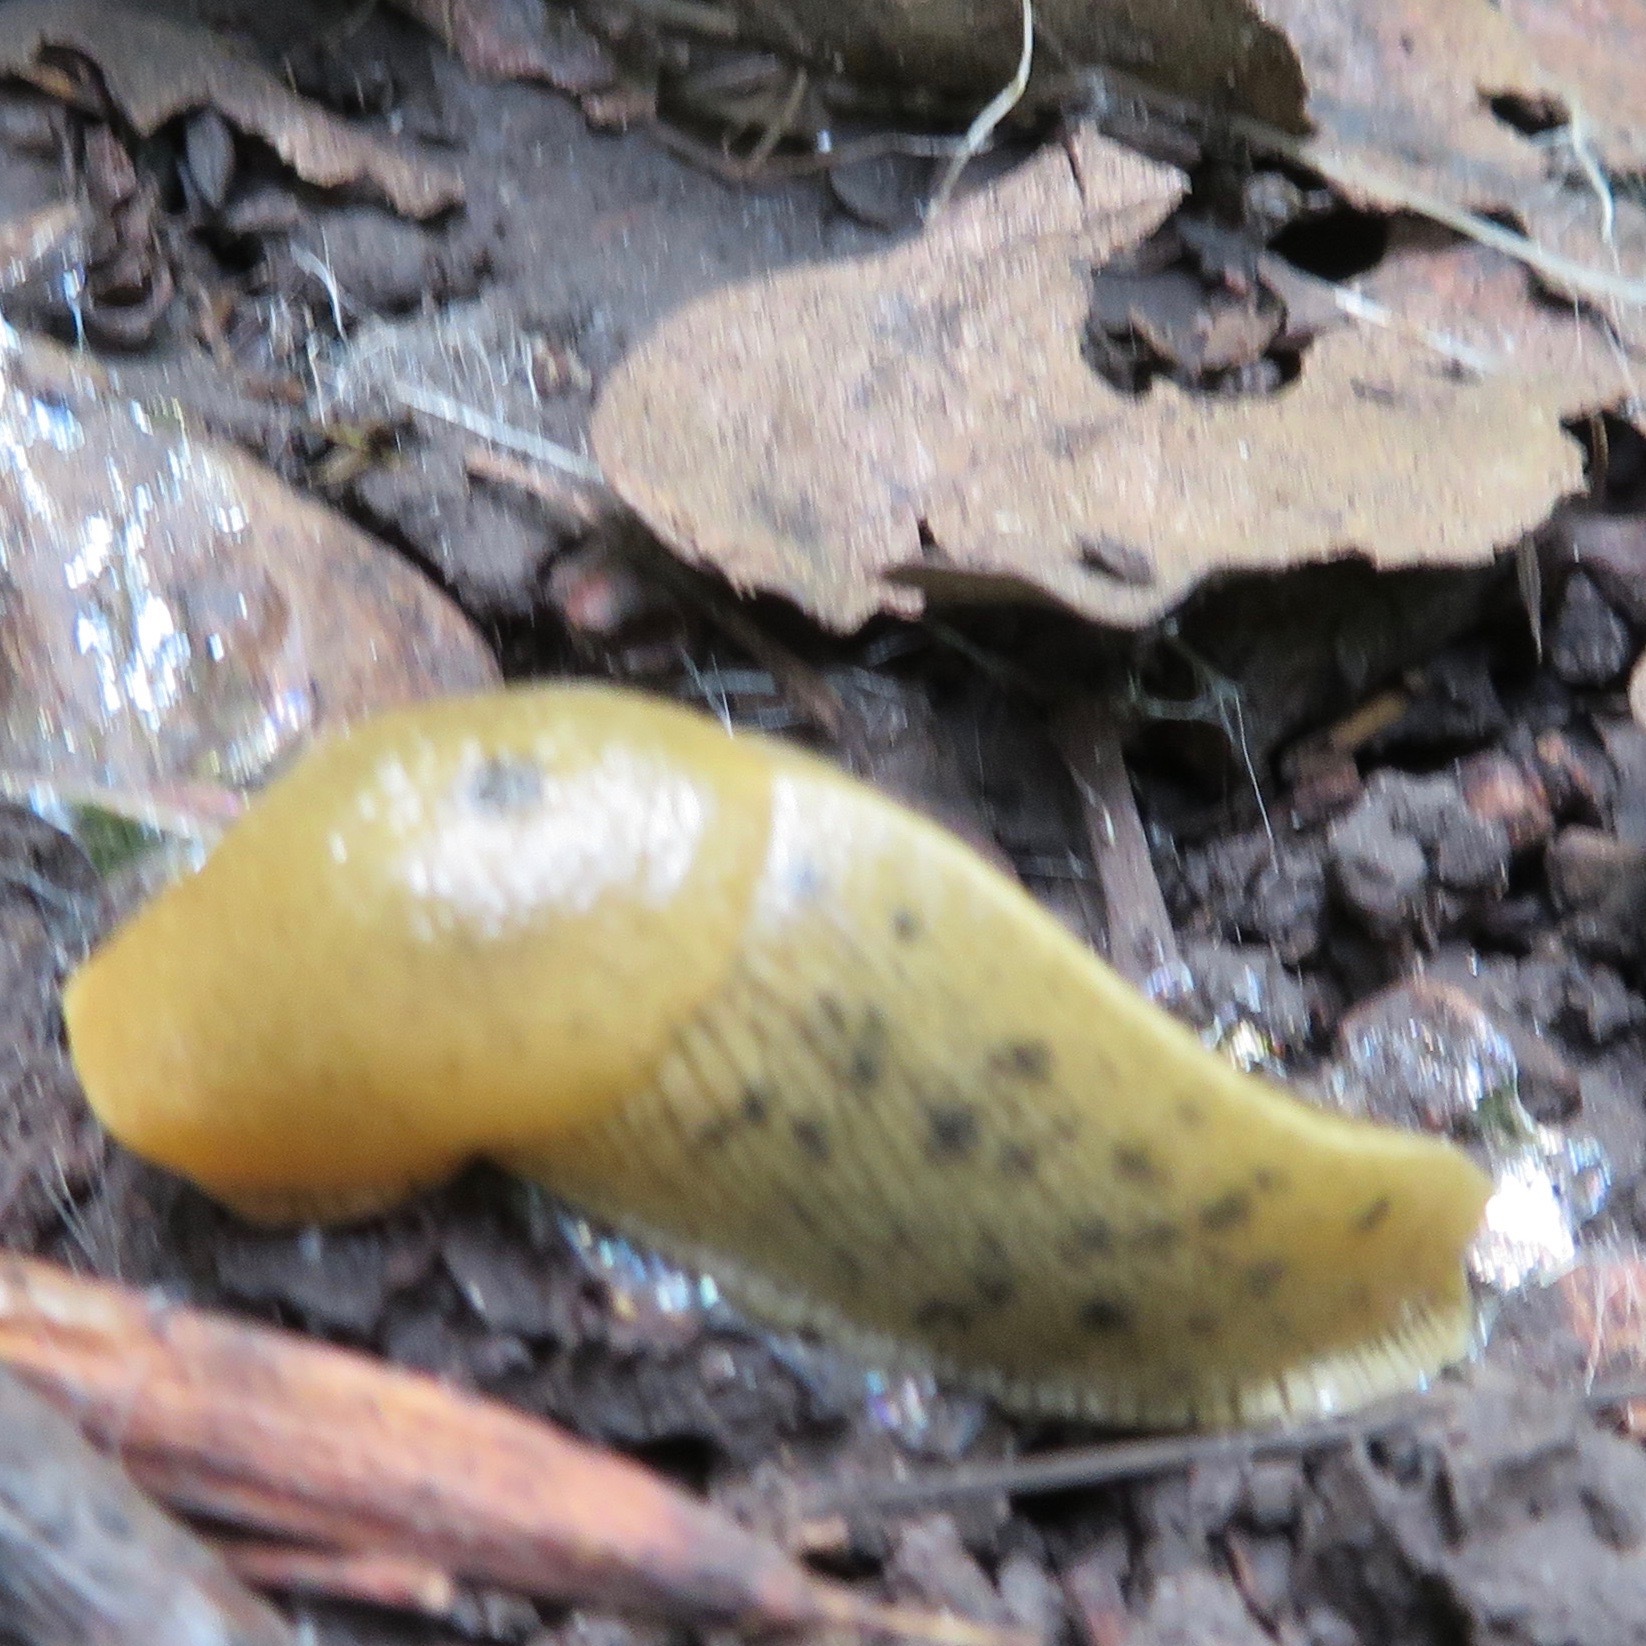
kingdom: Animalia
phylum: Mollusca
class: Gastropoda
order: Stylommatophora
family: Ariolimacidae
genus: Ariolimax
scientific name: Ariolimax buttoni
